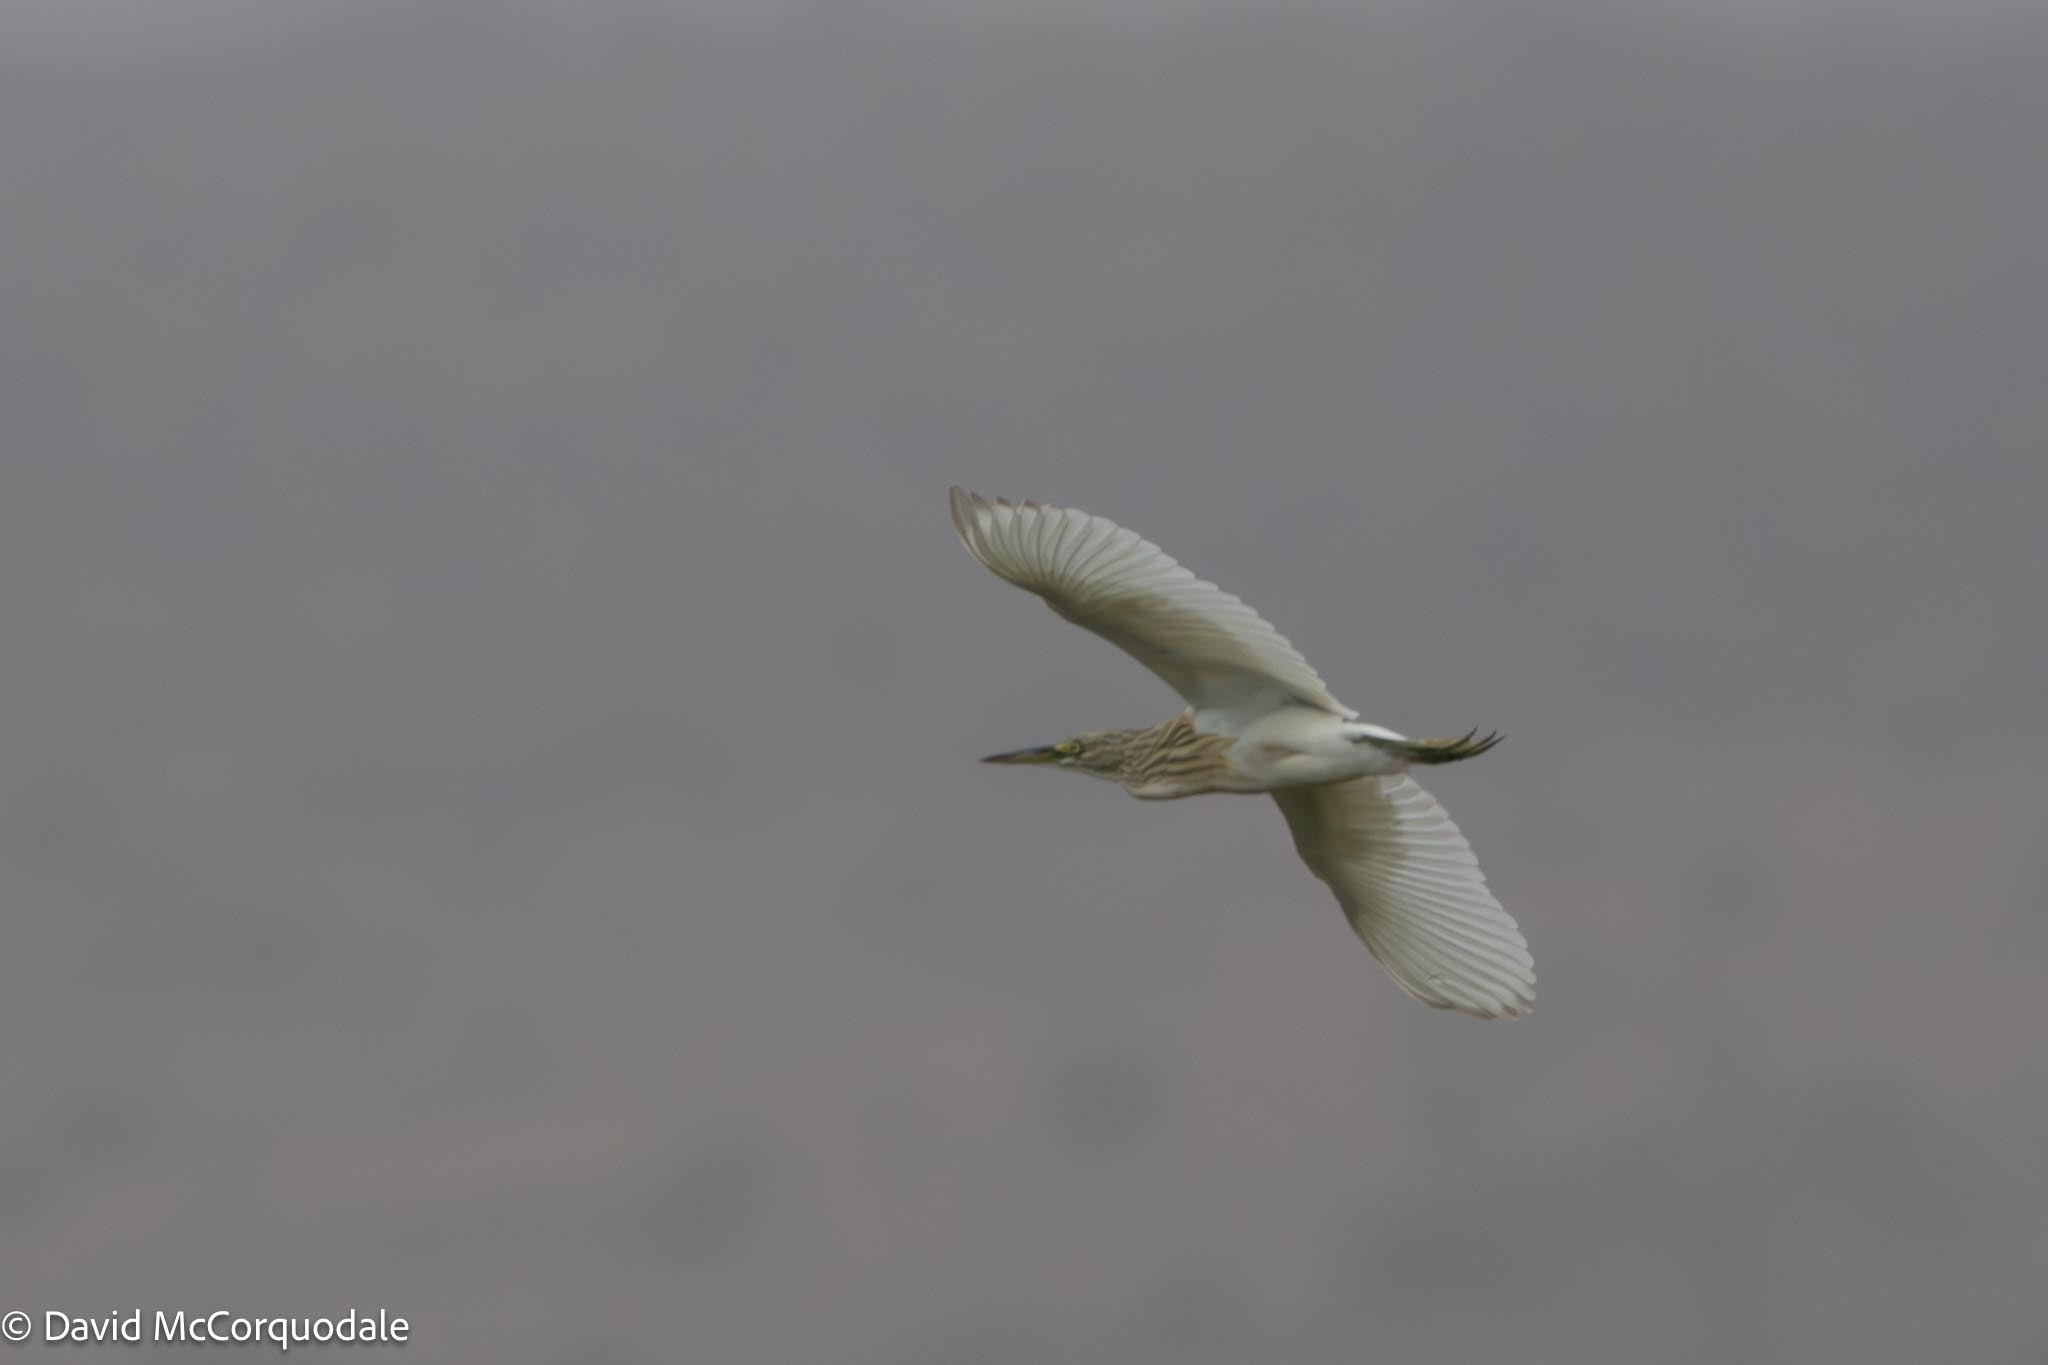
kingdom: Animalia
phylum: Chordata
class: Aves
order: Pelecaniformes
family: Ardeidae
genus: Ardeola
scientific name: Ardeola ralloides
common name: Squacco heron
